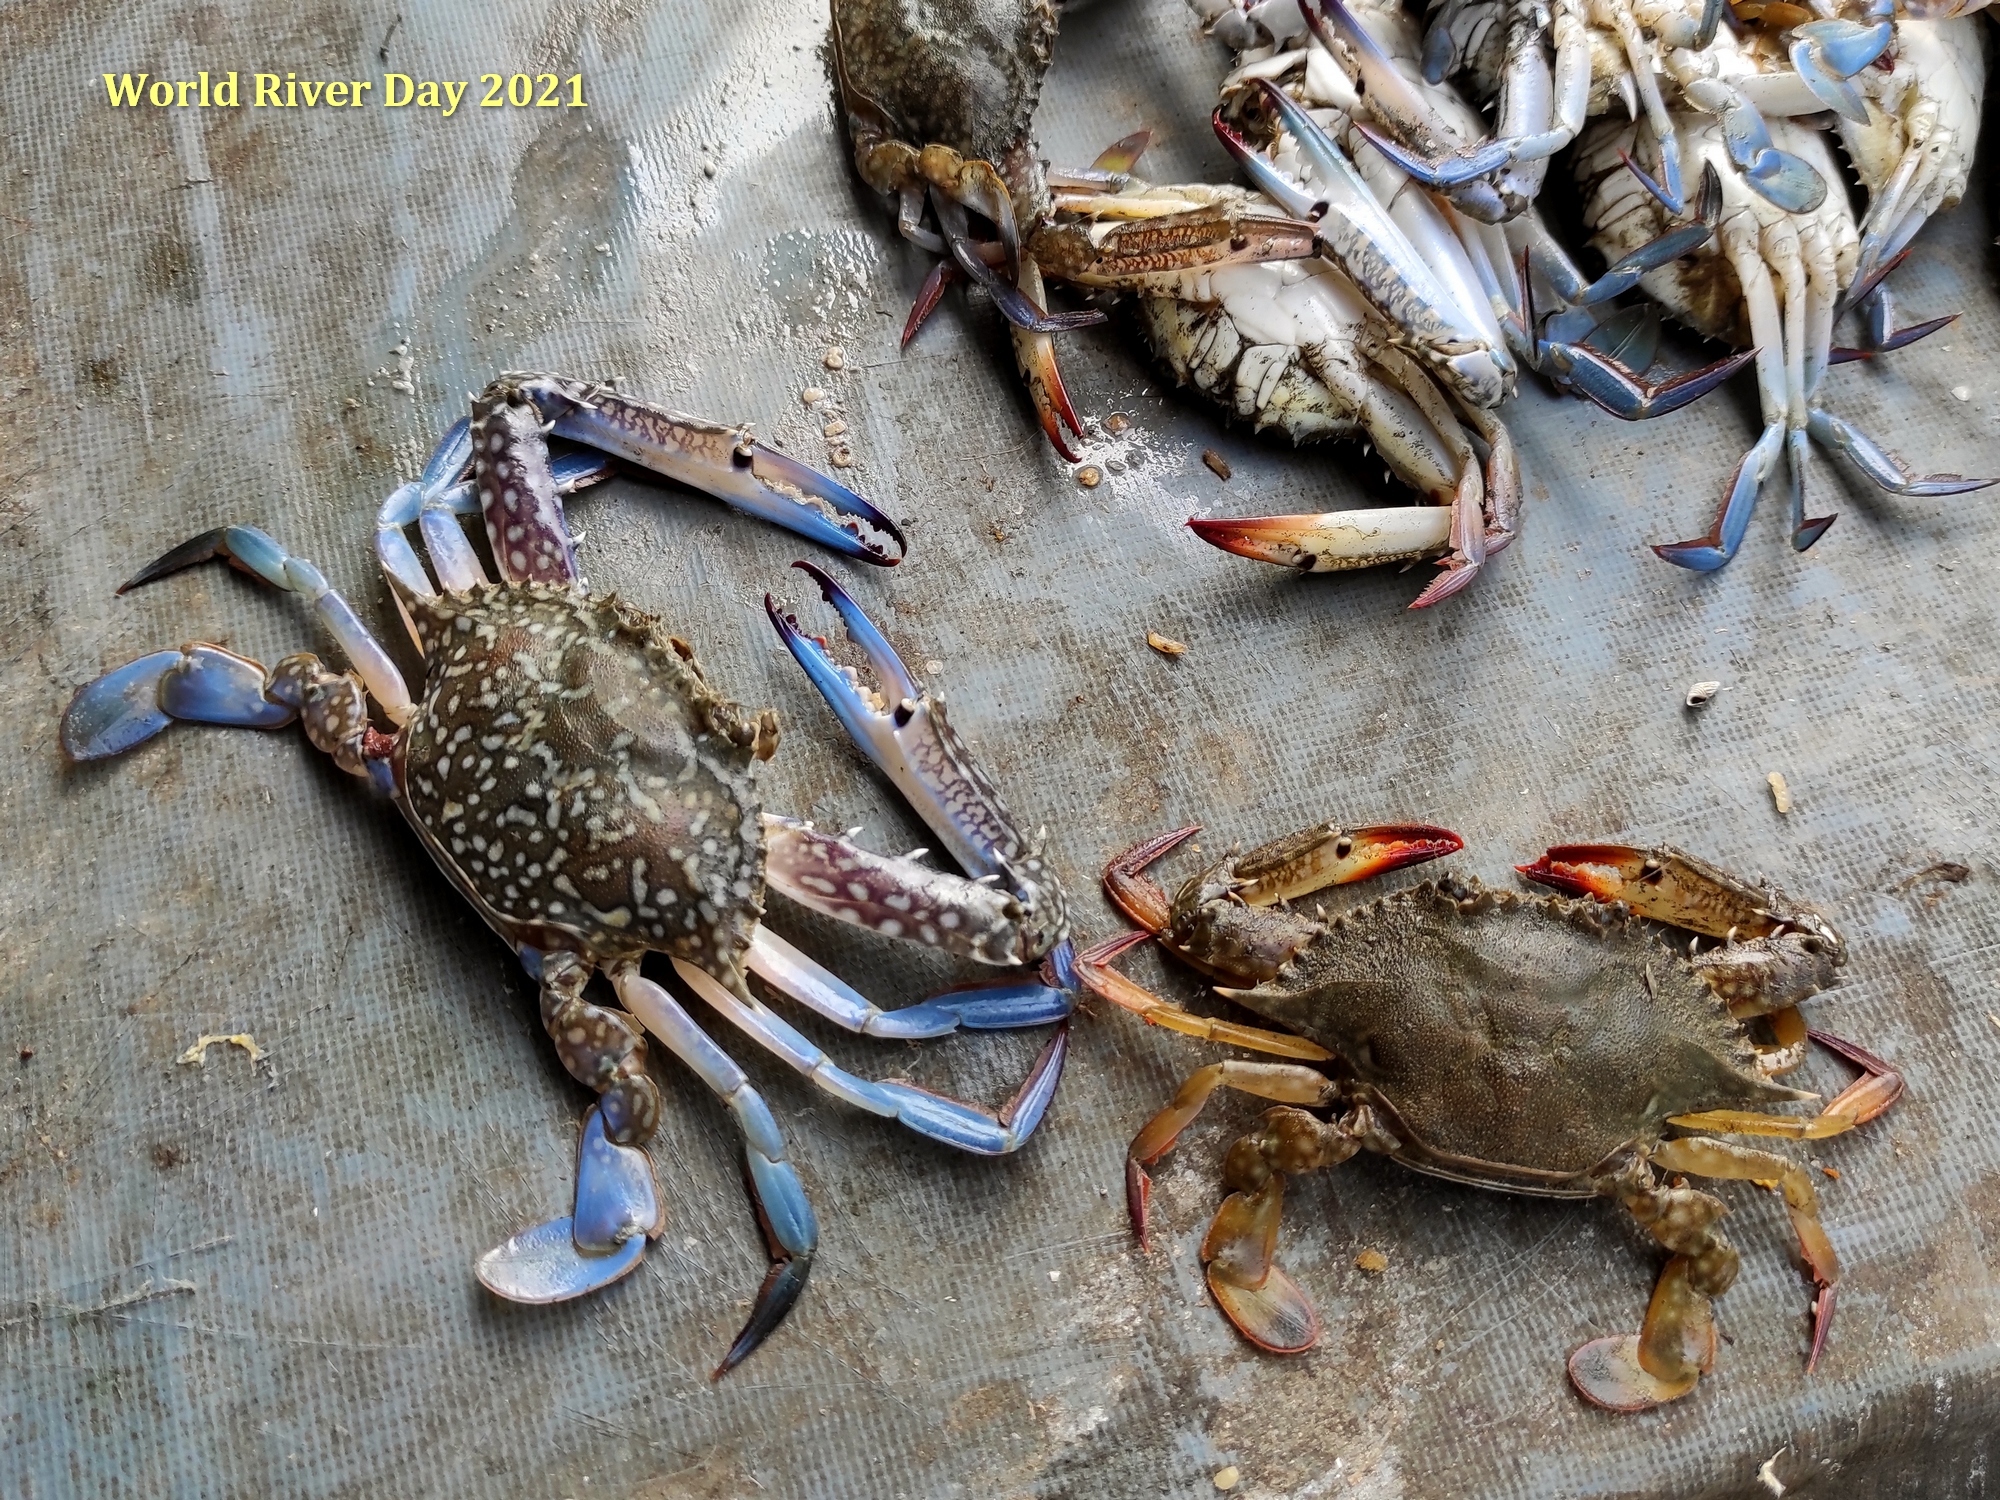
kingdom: Animalia
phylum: Arthropoda
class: Malacostraca
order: Decapoda
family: Portunidae
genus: Portunus
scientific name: Portunus pelagicus
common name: Blue swimming crab
